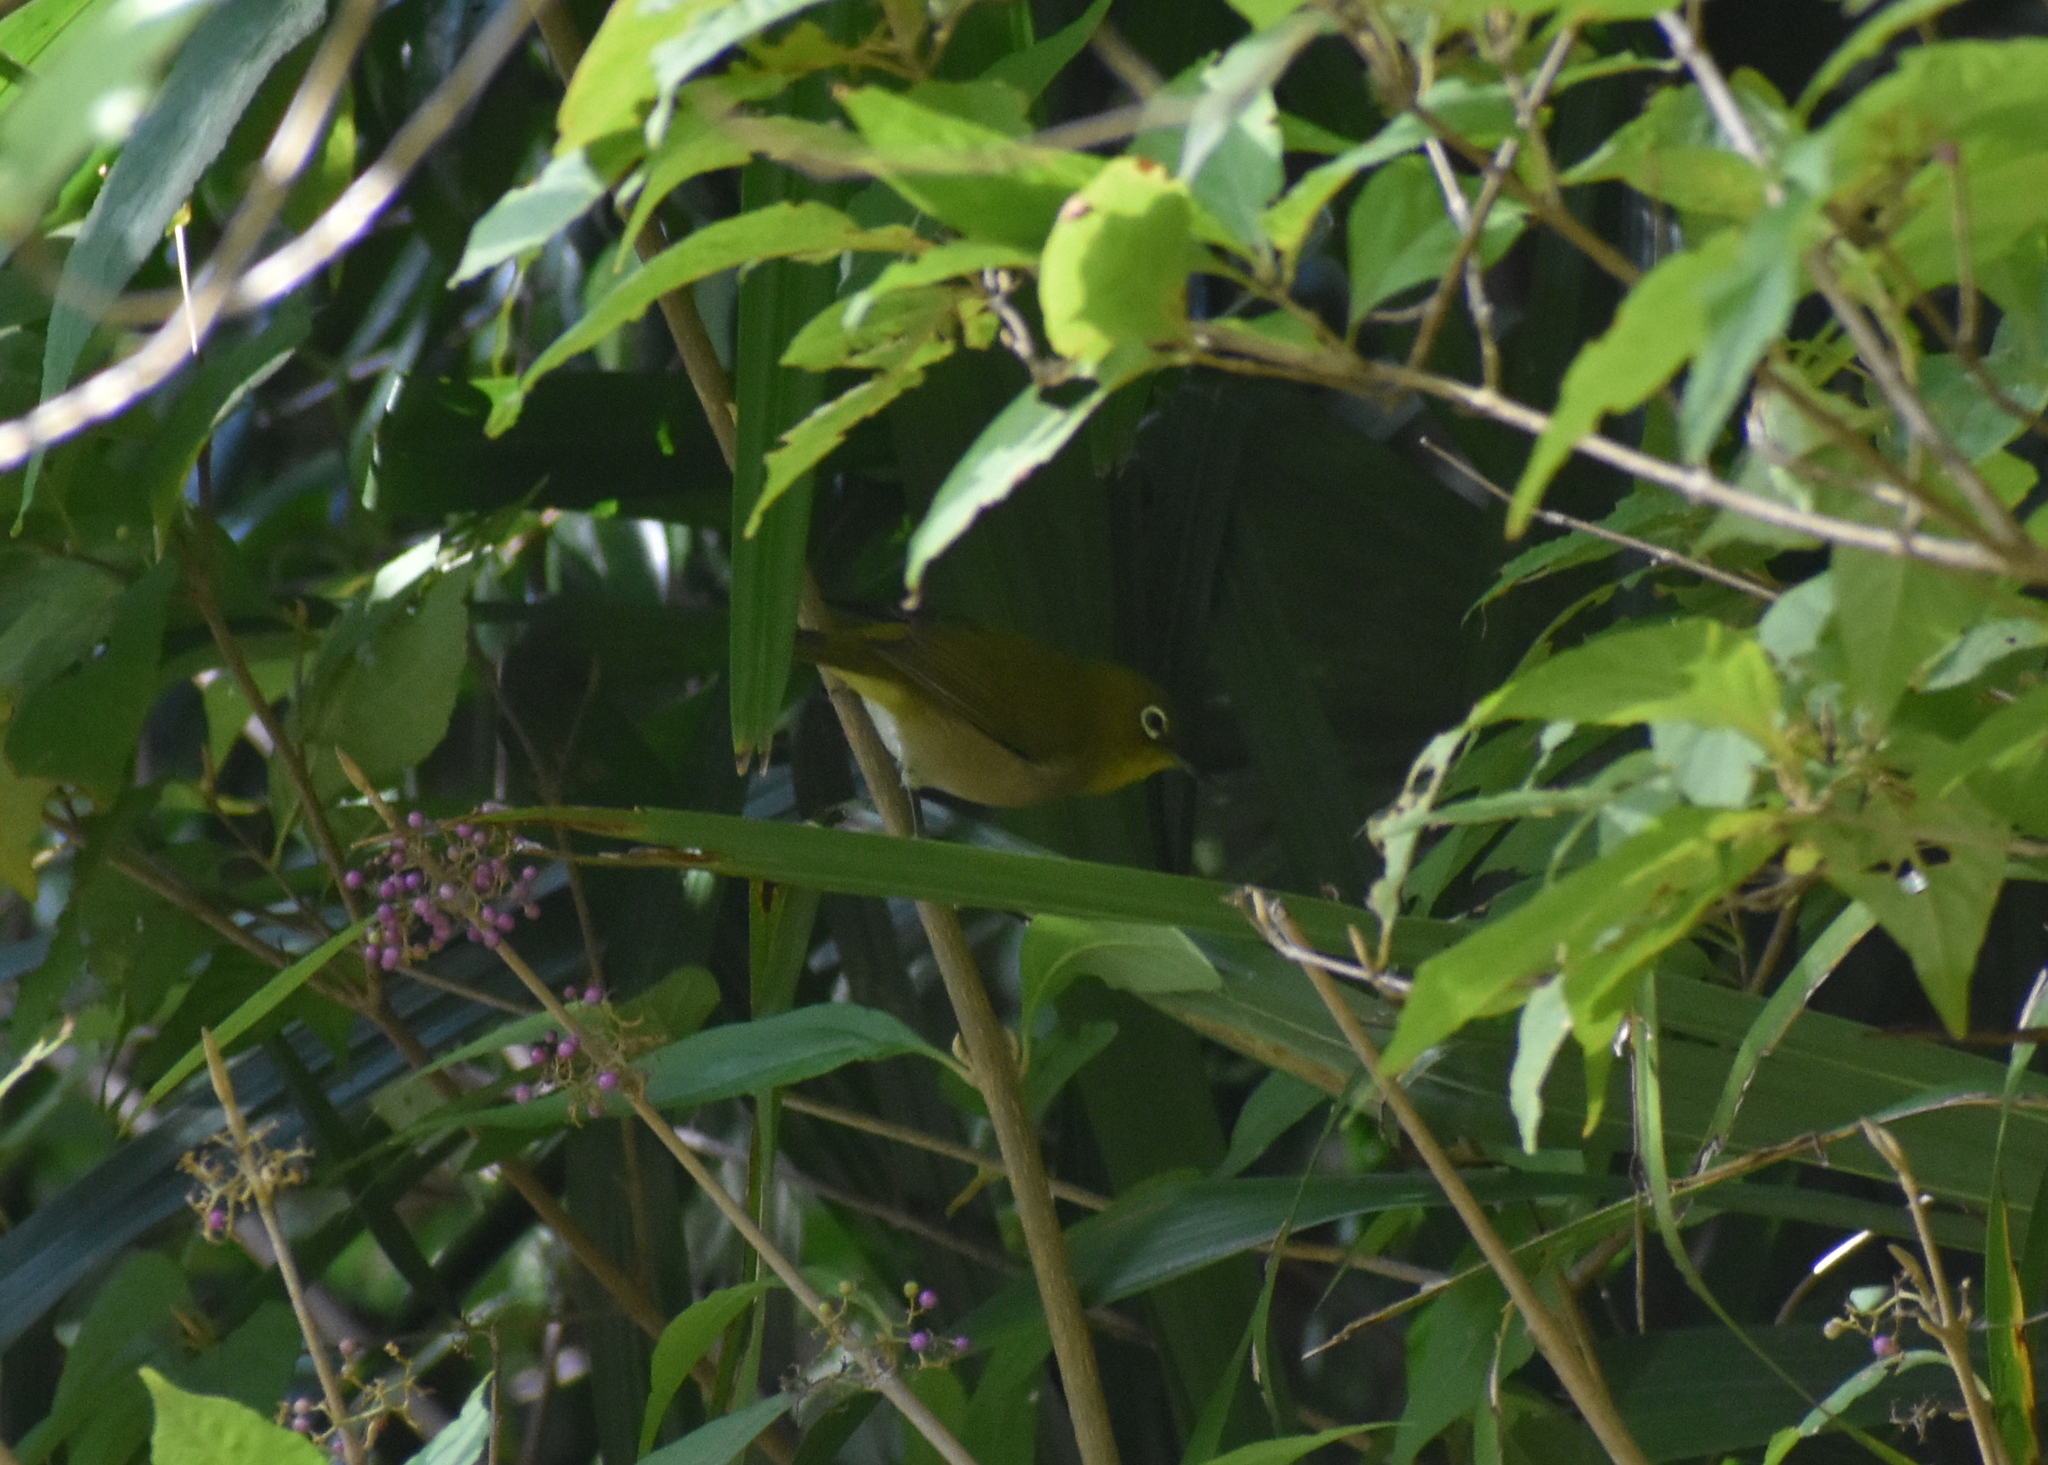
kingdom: Animalia
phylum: Chordata
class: Aves
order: Passeriformes
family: Zosteropidae
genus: Zosterops
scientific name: Zosterops japonicus
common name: Japanese white-eye
